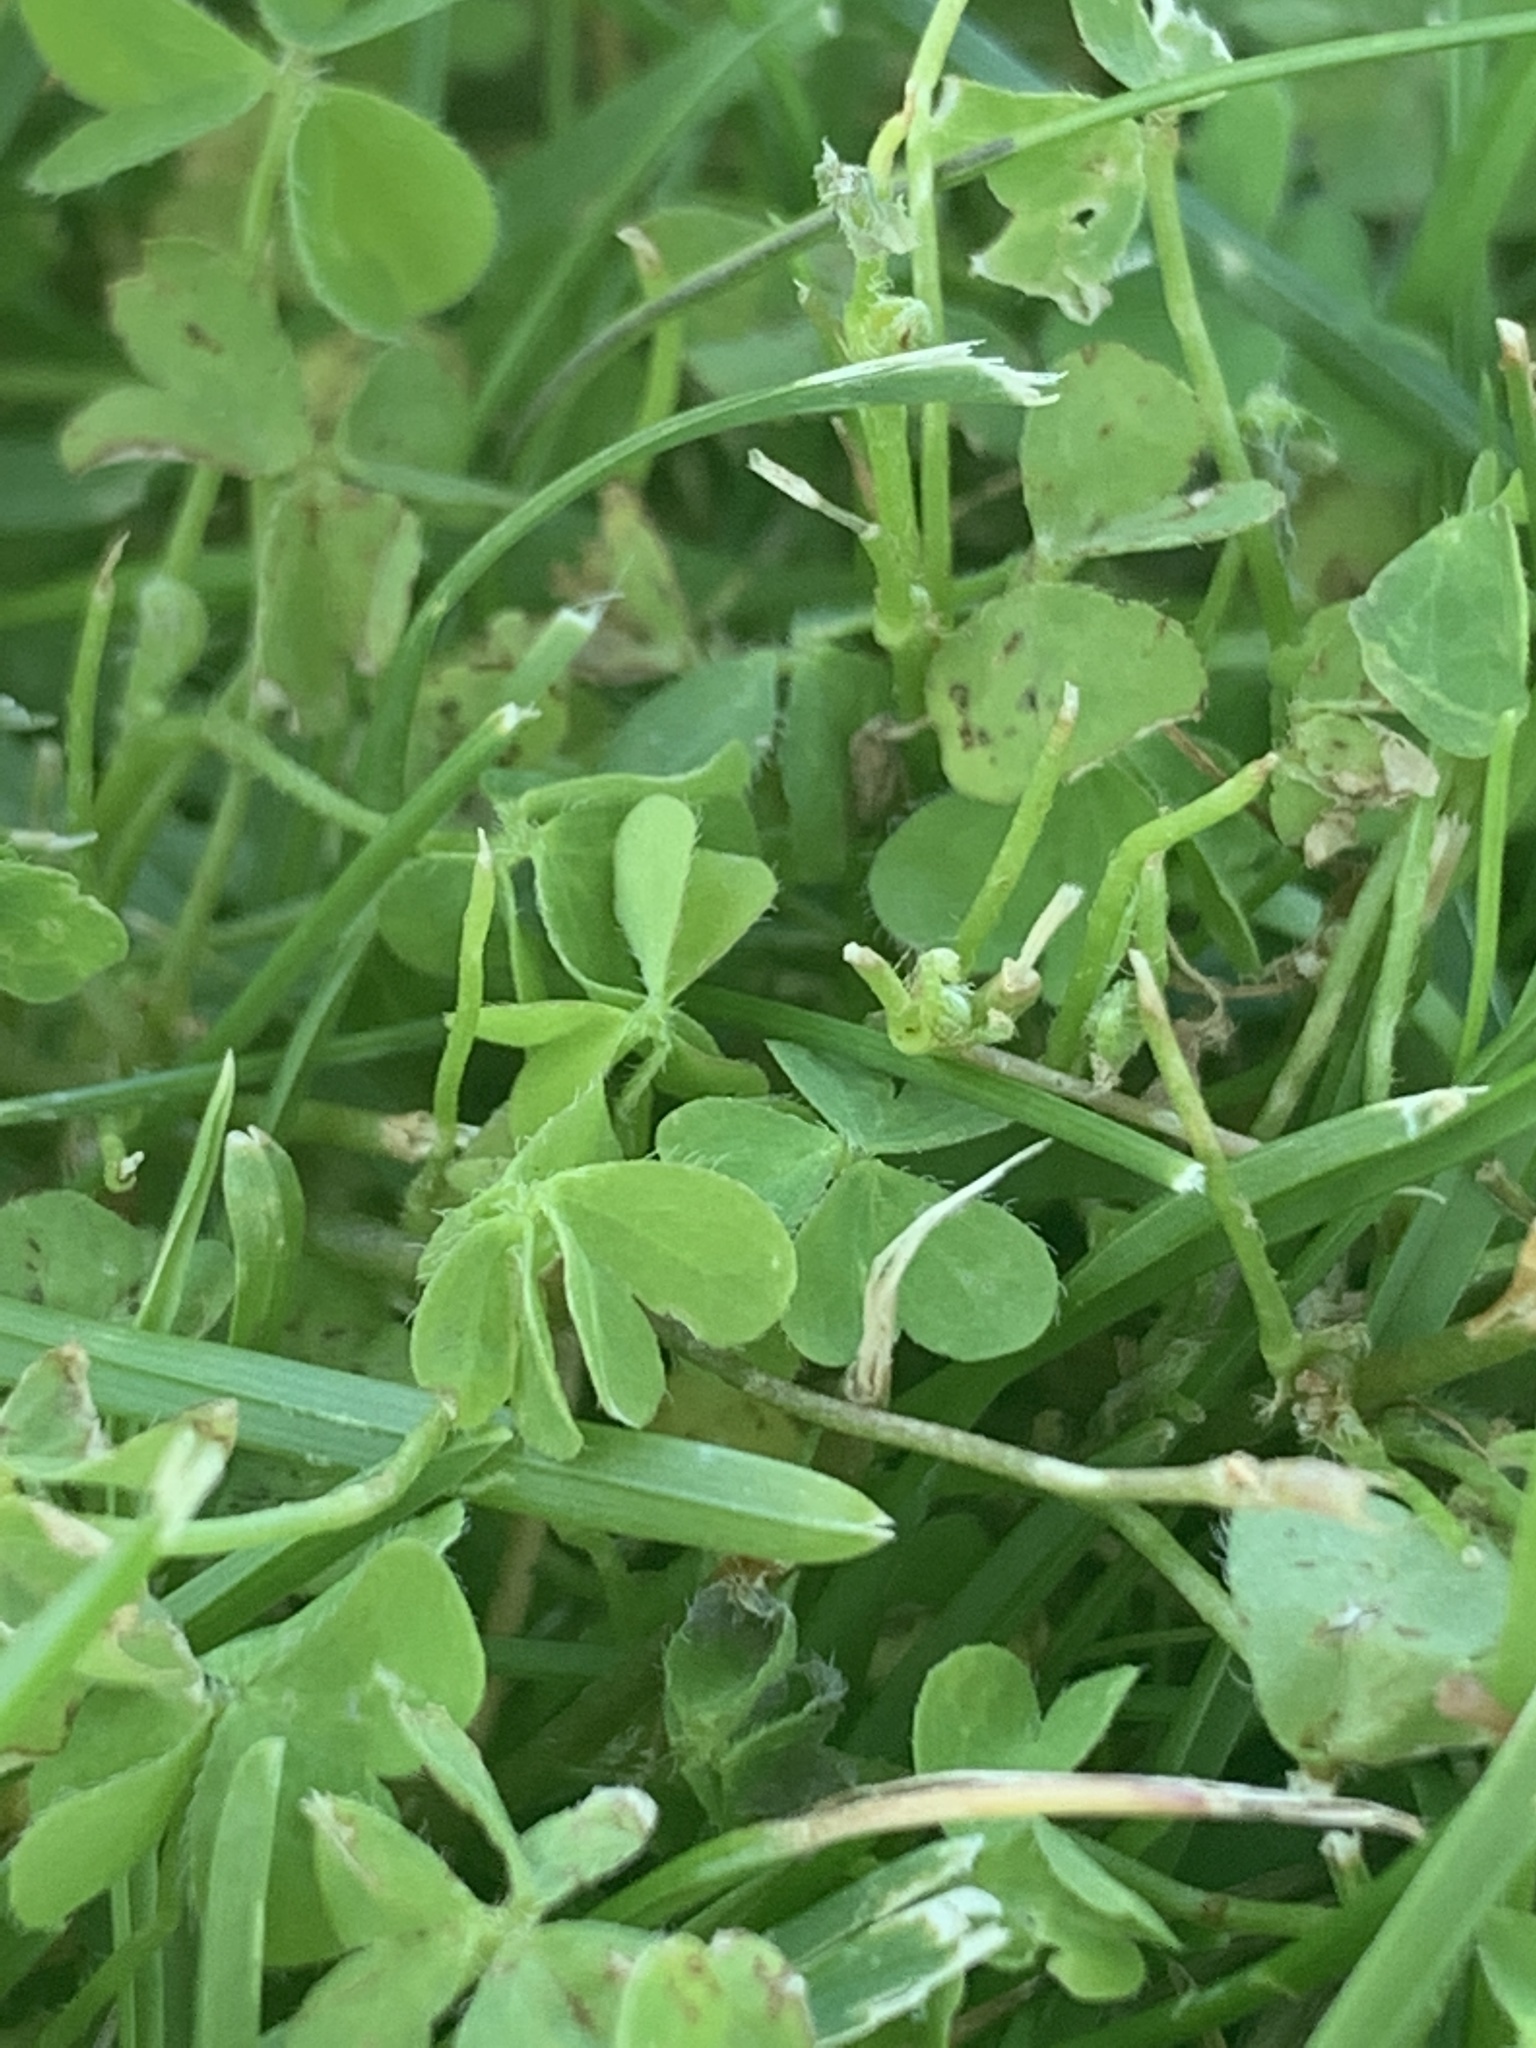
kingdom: Plantae
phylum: Tracheophyta
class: Magnoliopsida
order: Oxalidales
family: Oxalidaceae
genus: Oxalis
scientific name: Oxalis corniculata
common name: Procumbent yellow-sorrel
